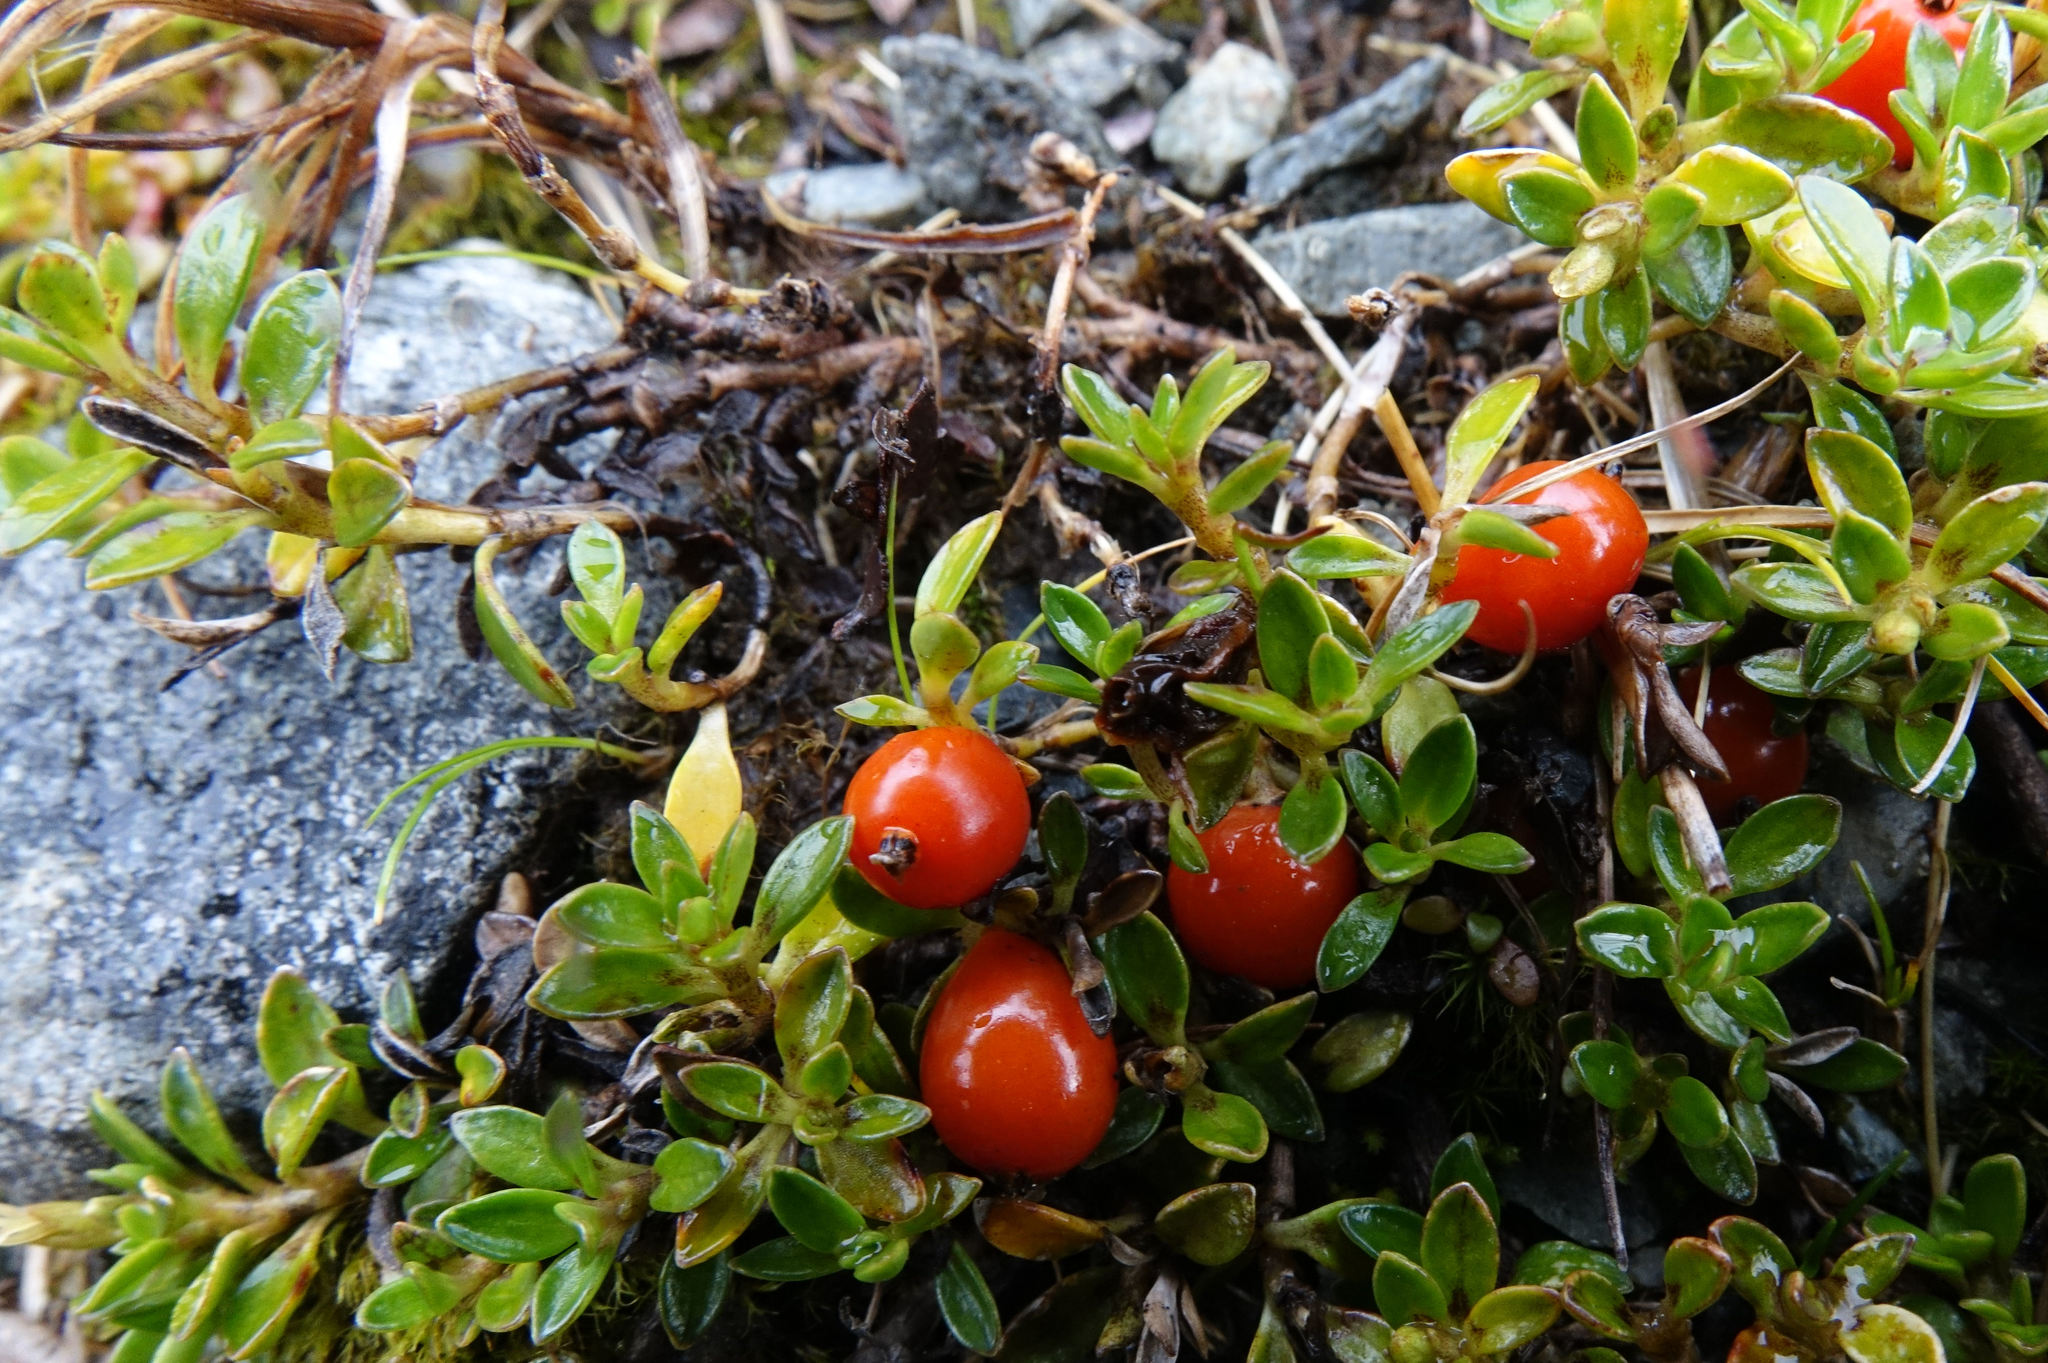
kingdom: Plantae
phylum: Tracheophyta
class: Magnoliopsida
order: Gentianales
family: Rubiaceae
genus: Coprosma
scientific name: Coprosma perpusilla
